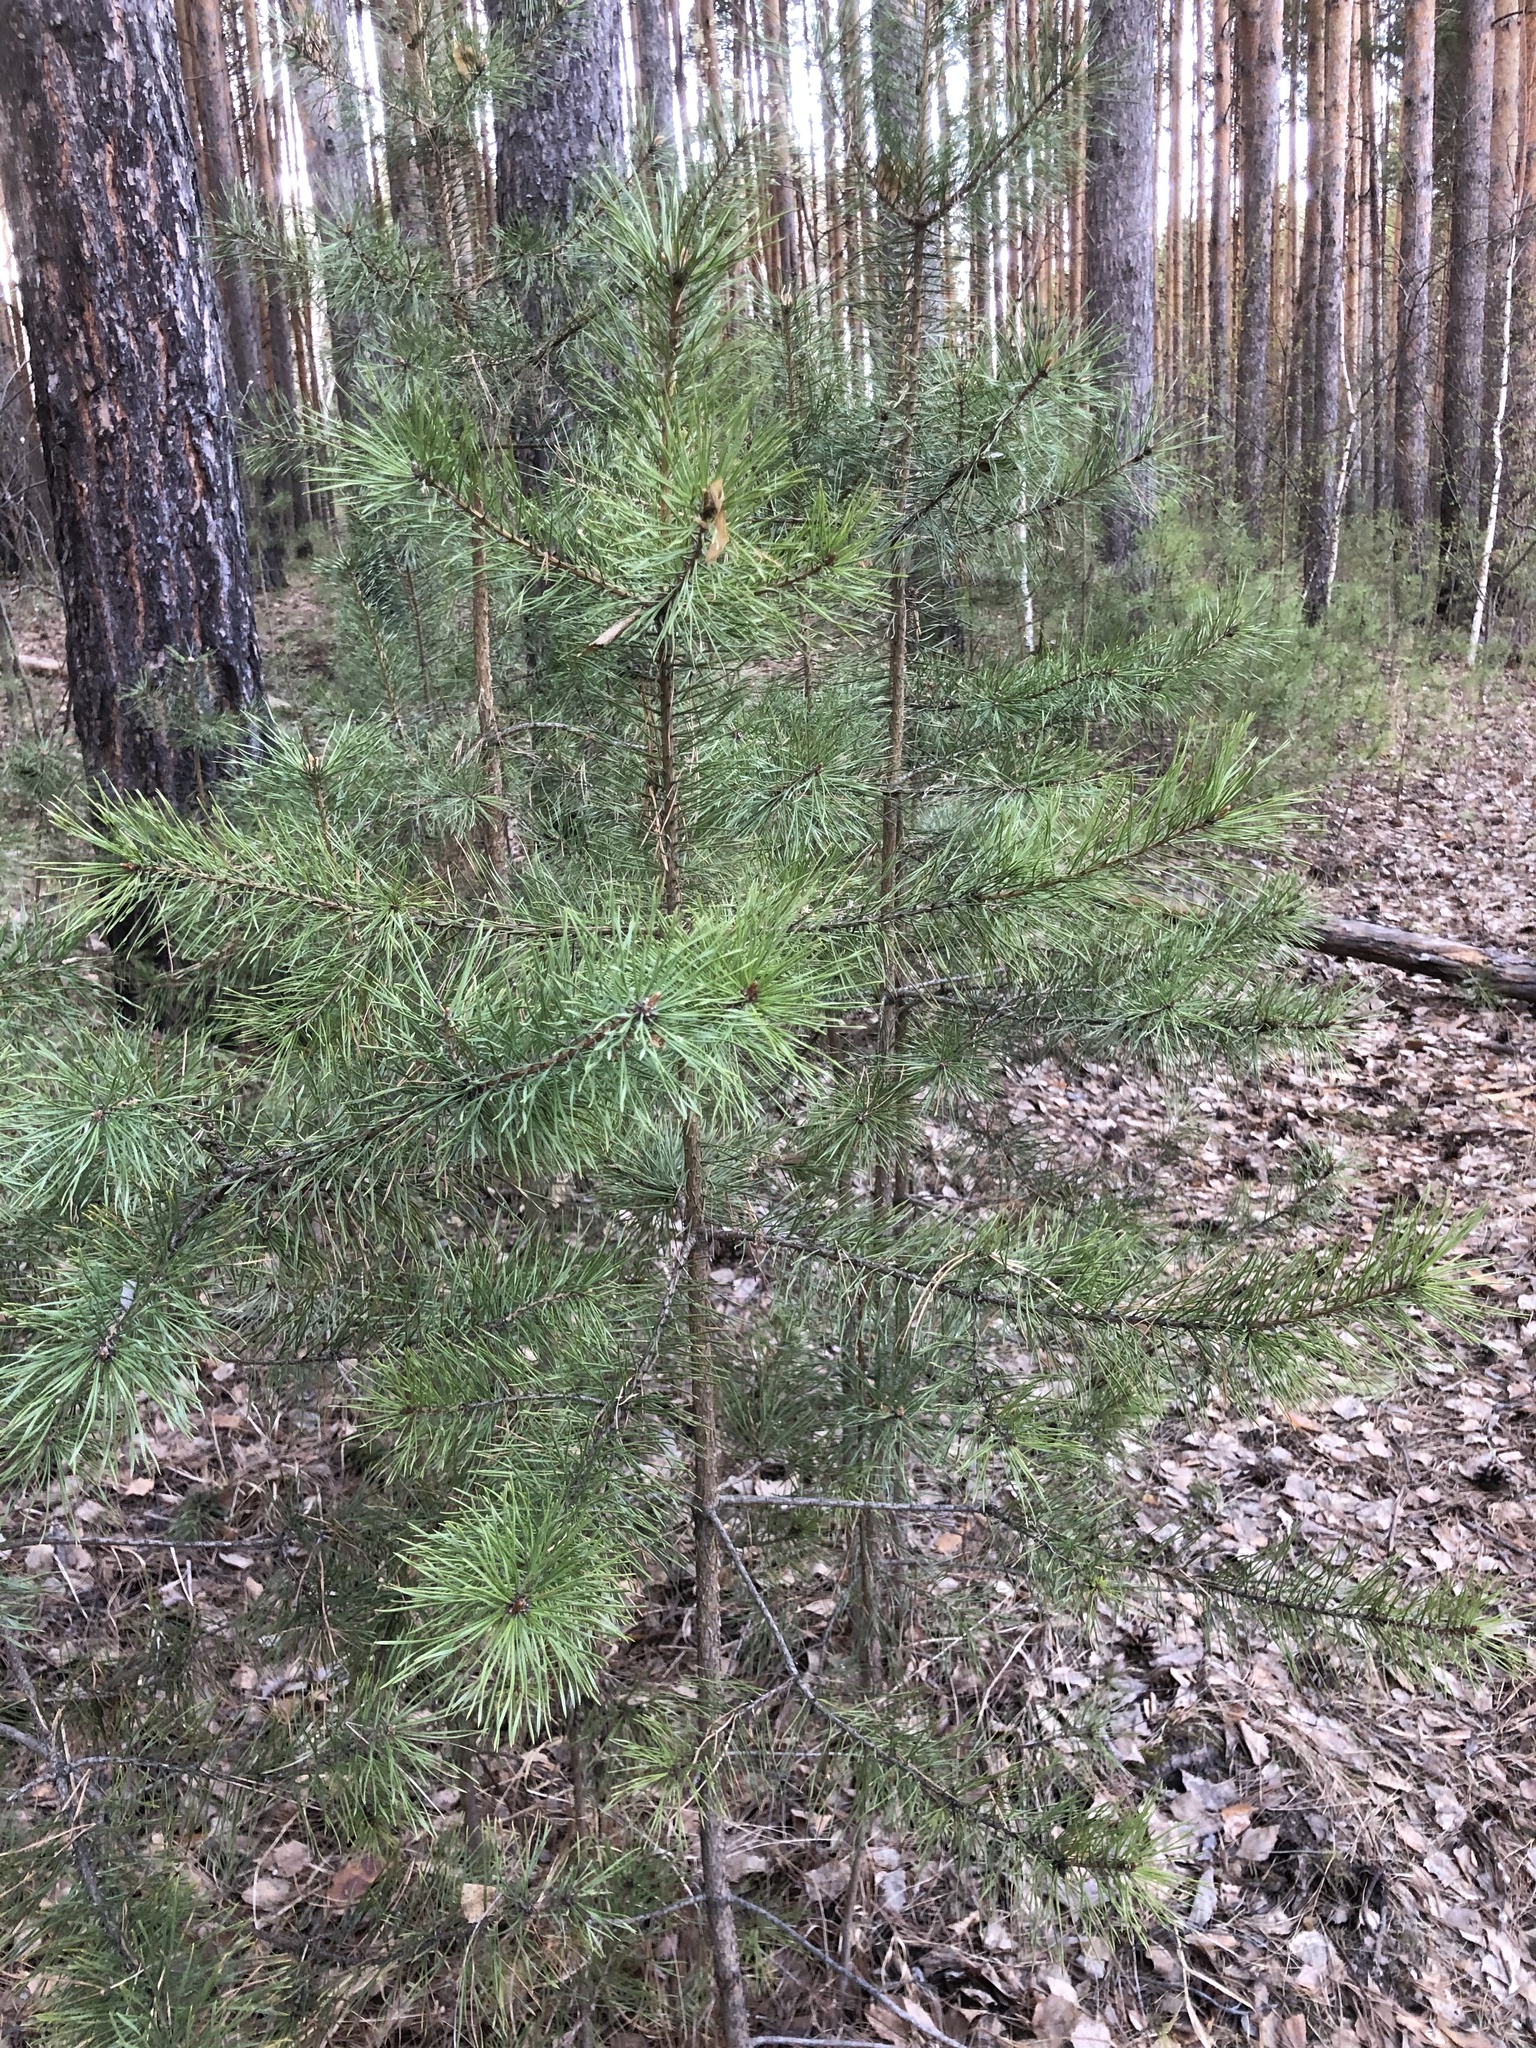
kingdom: Plantae
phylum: Tracheophyta
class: Pinopsida
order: Pinales
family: Pinaceae
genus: Pinus
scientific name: Pinus sylvestris
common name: Scots pine
